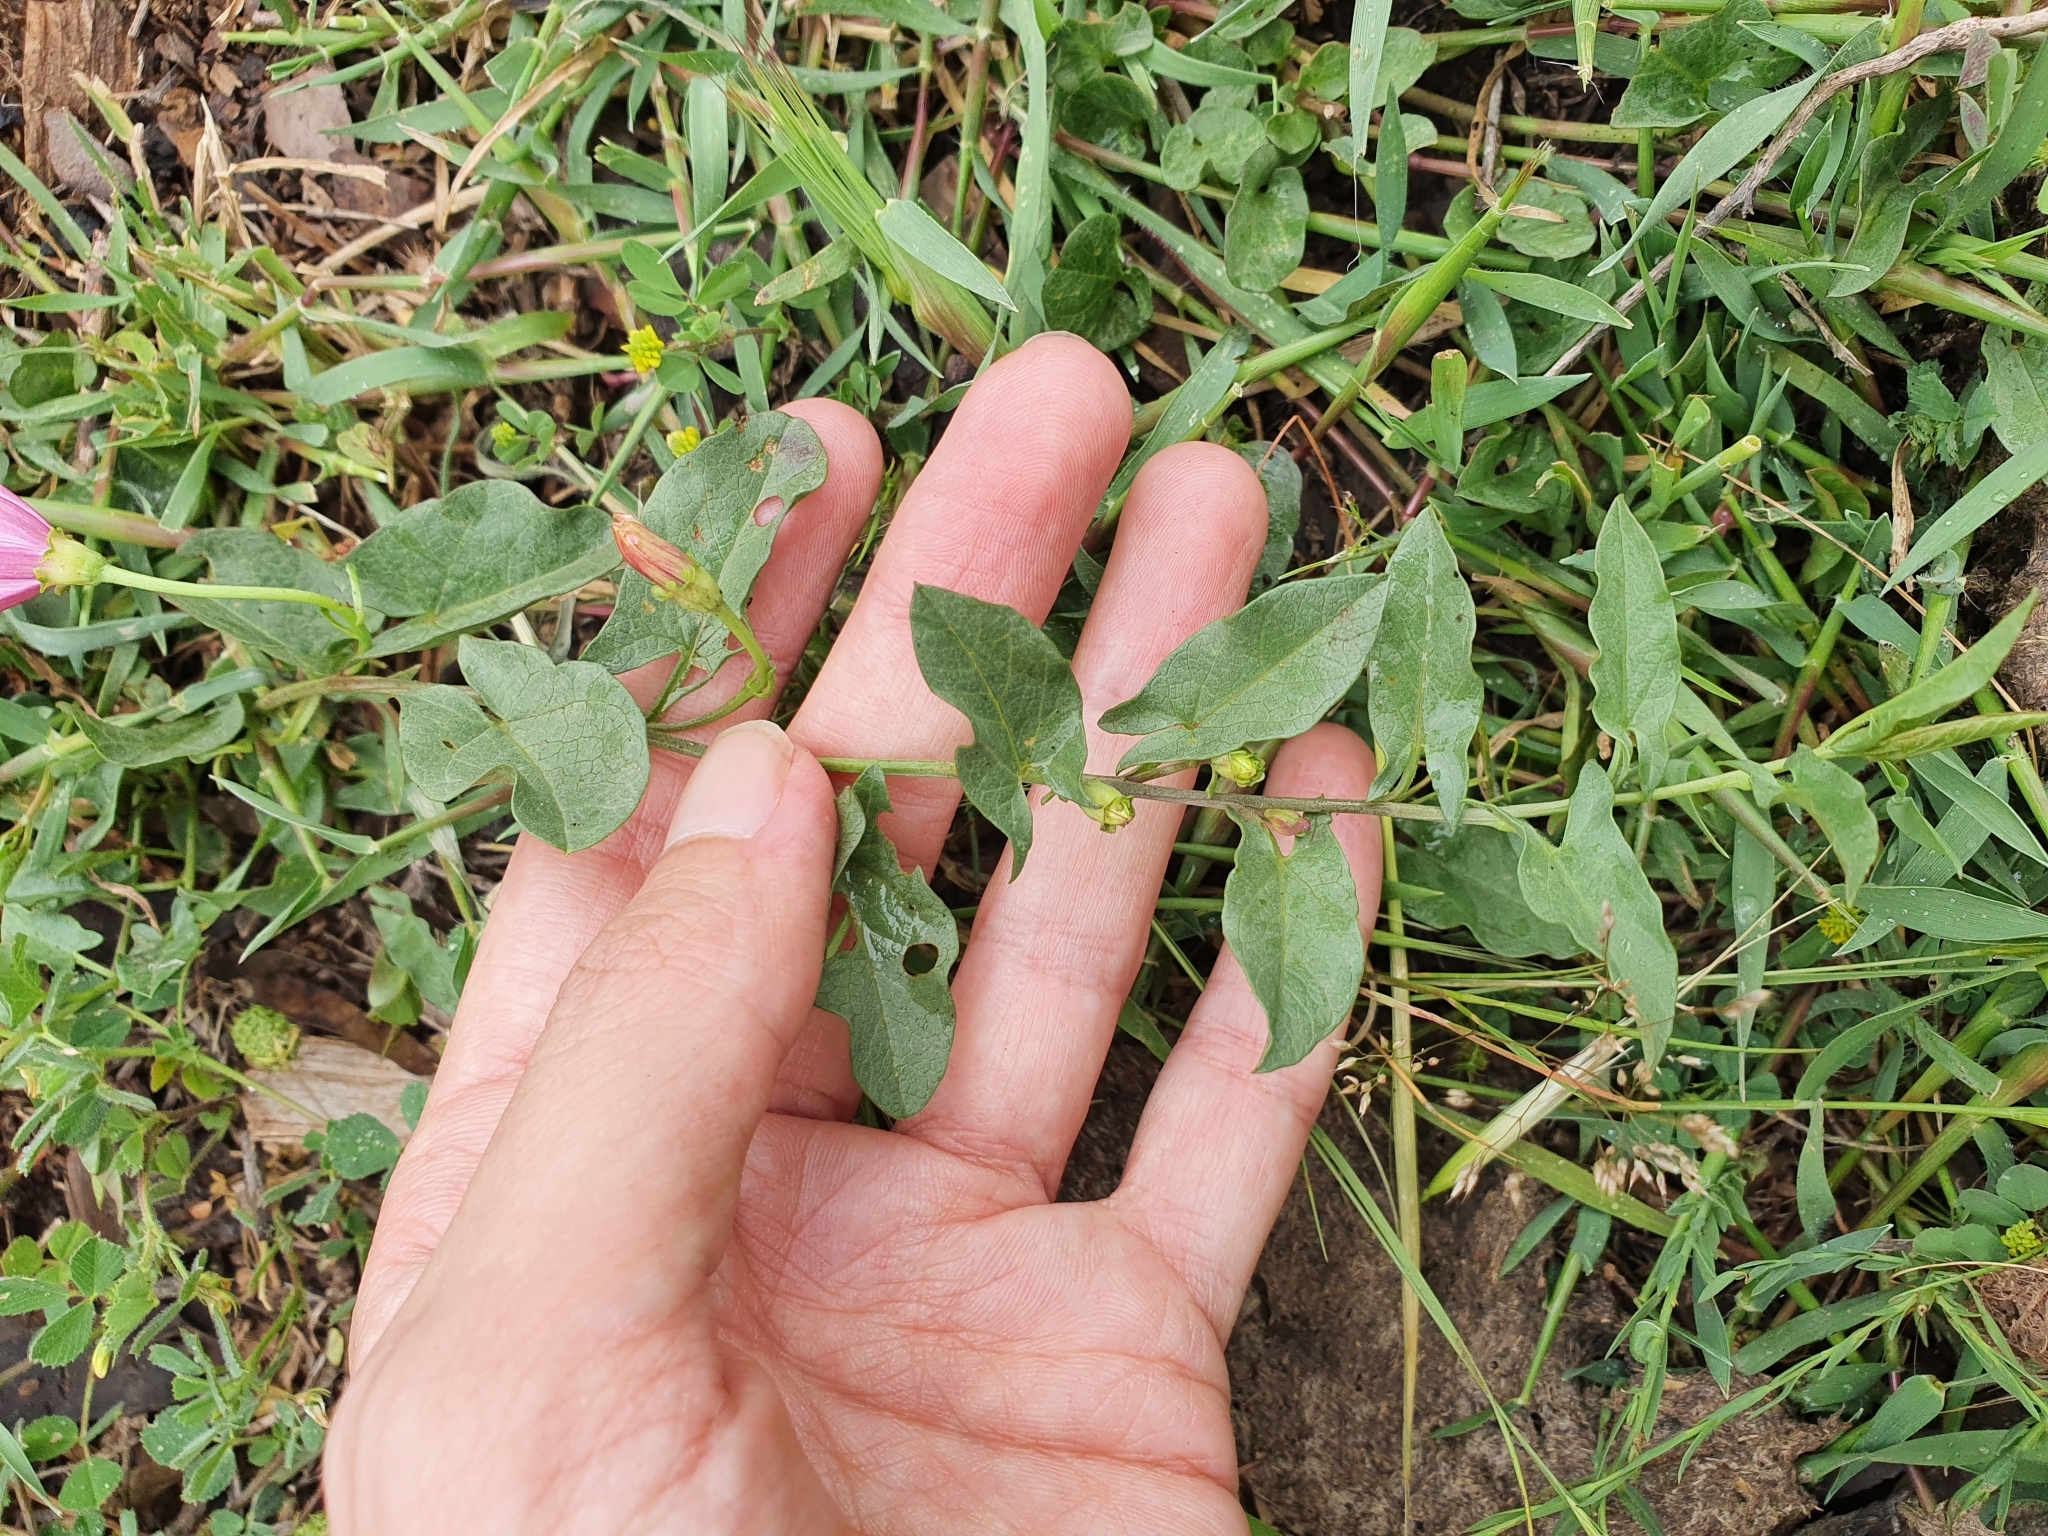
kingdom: Plantae
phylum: Tracheophyta
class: Magnoliopsida
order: Solanales
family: Convolvulaceae
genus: Convolvulus
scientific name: Convolvulus durandoi
